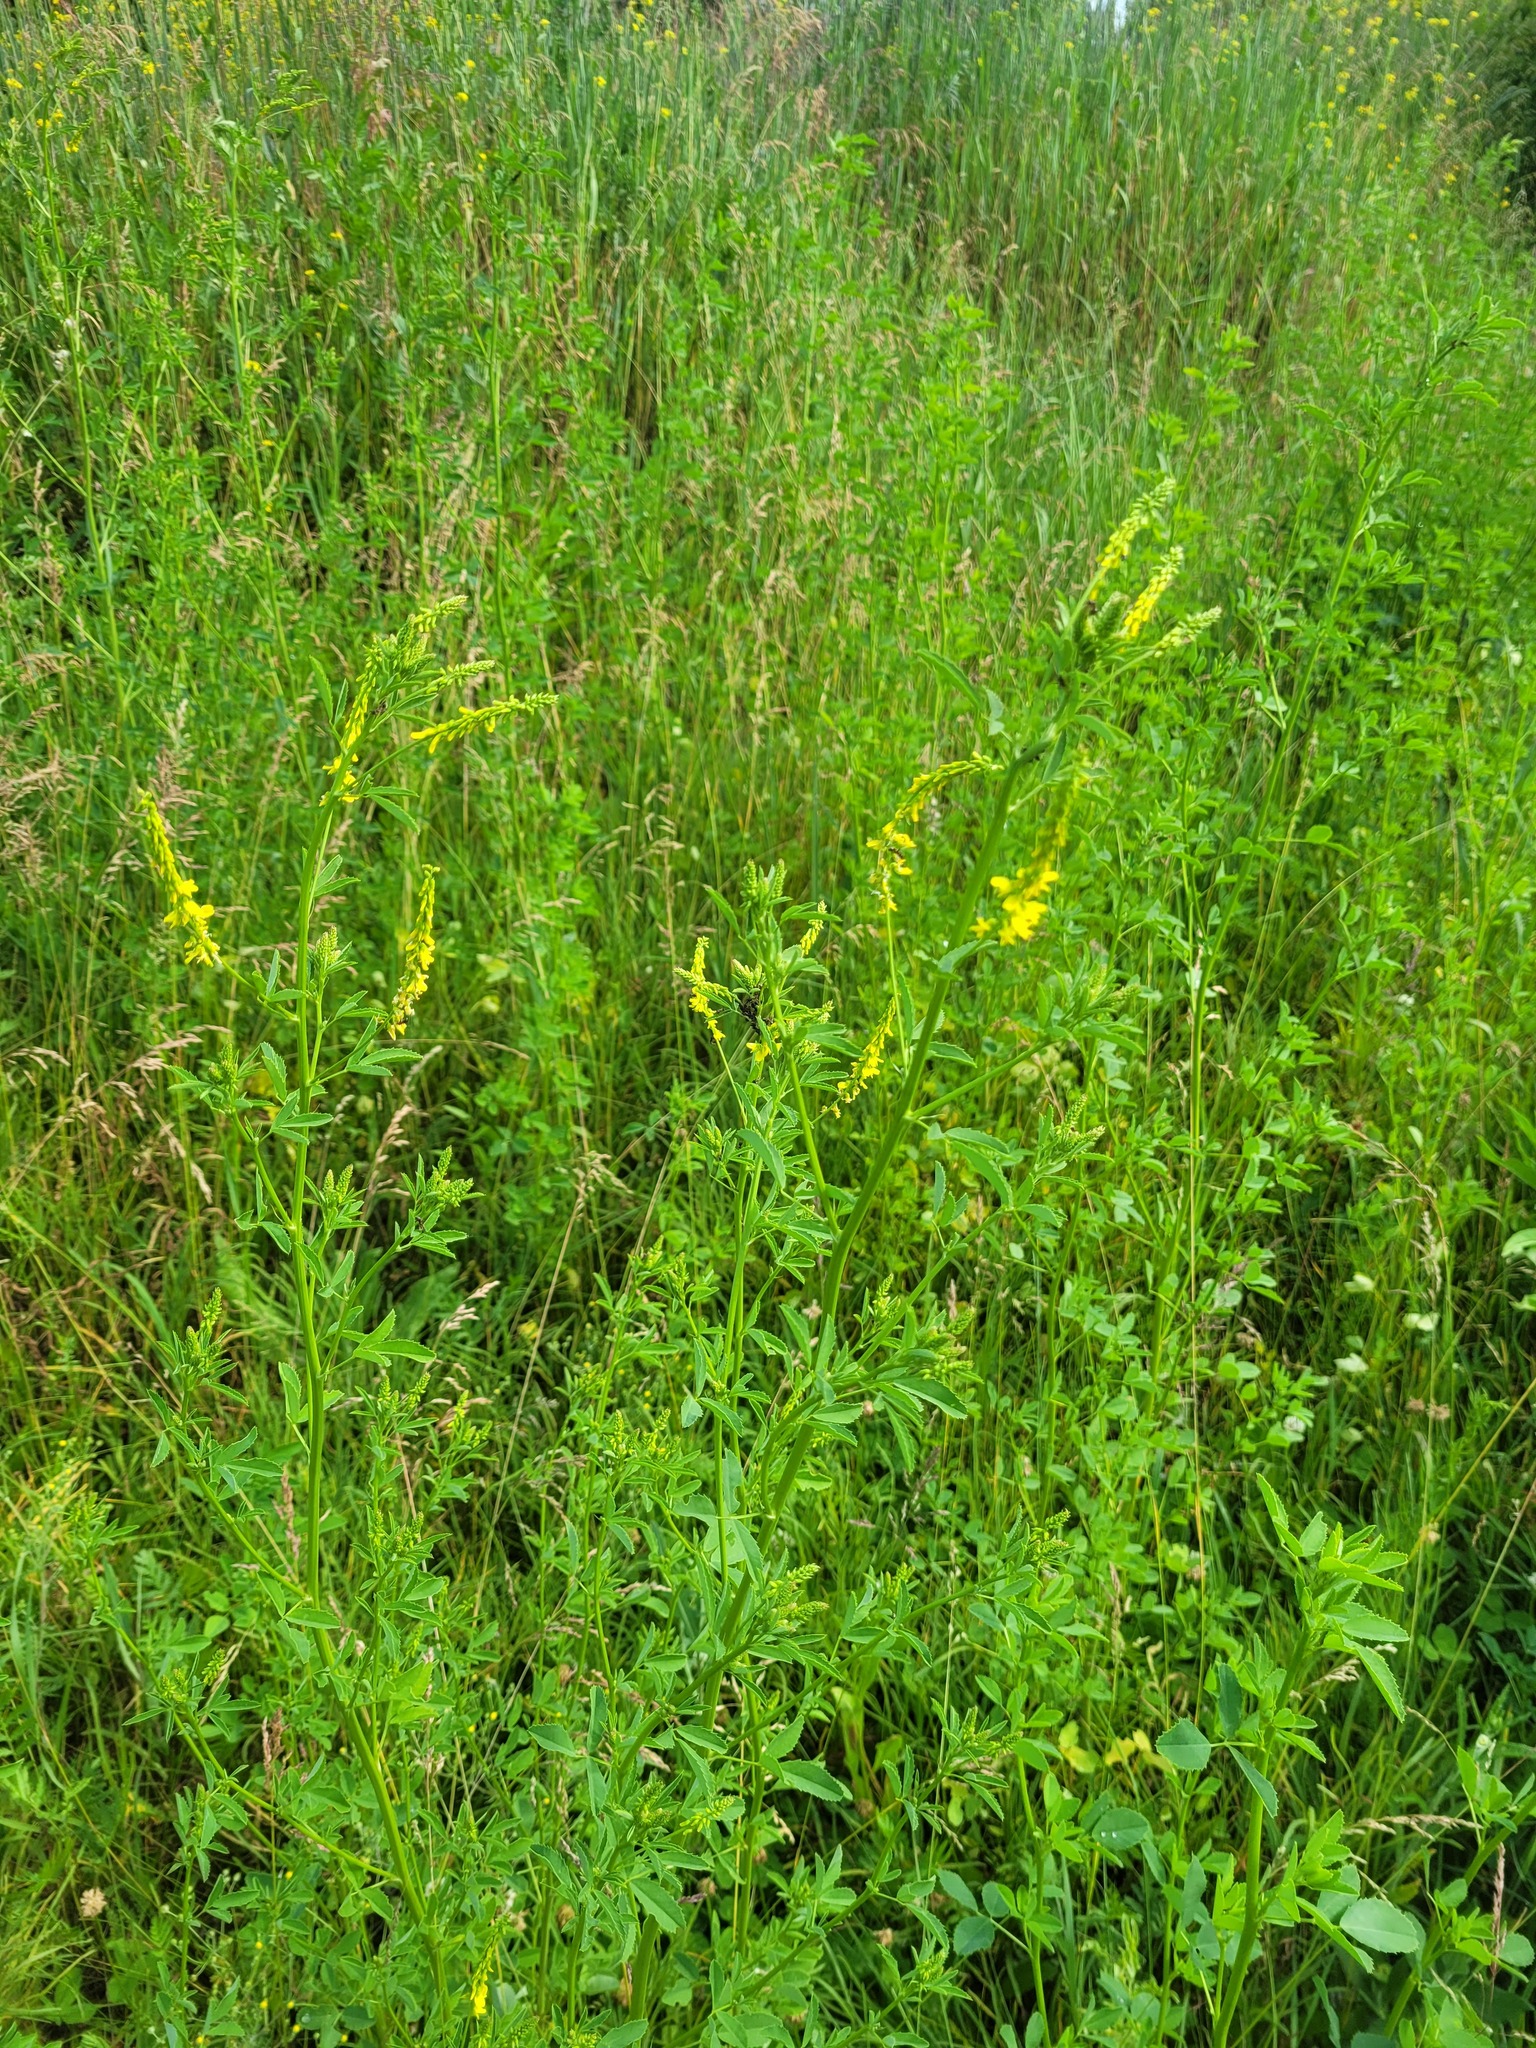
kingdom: Plantae
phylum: Tracheophyta
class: Magnoliopsida
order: Fabales
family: Fabaceae
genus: Melilotus
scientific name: Melilotus officinalis
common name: Sweetclover
